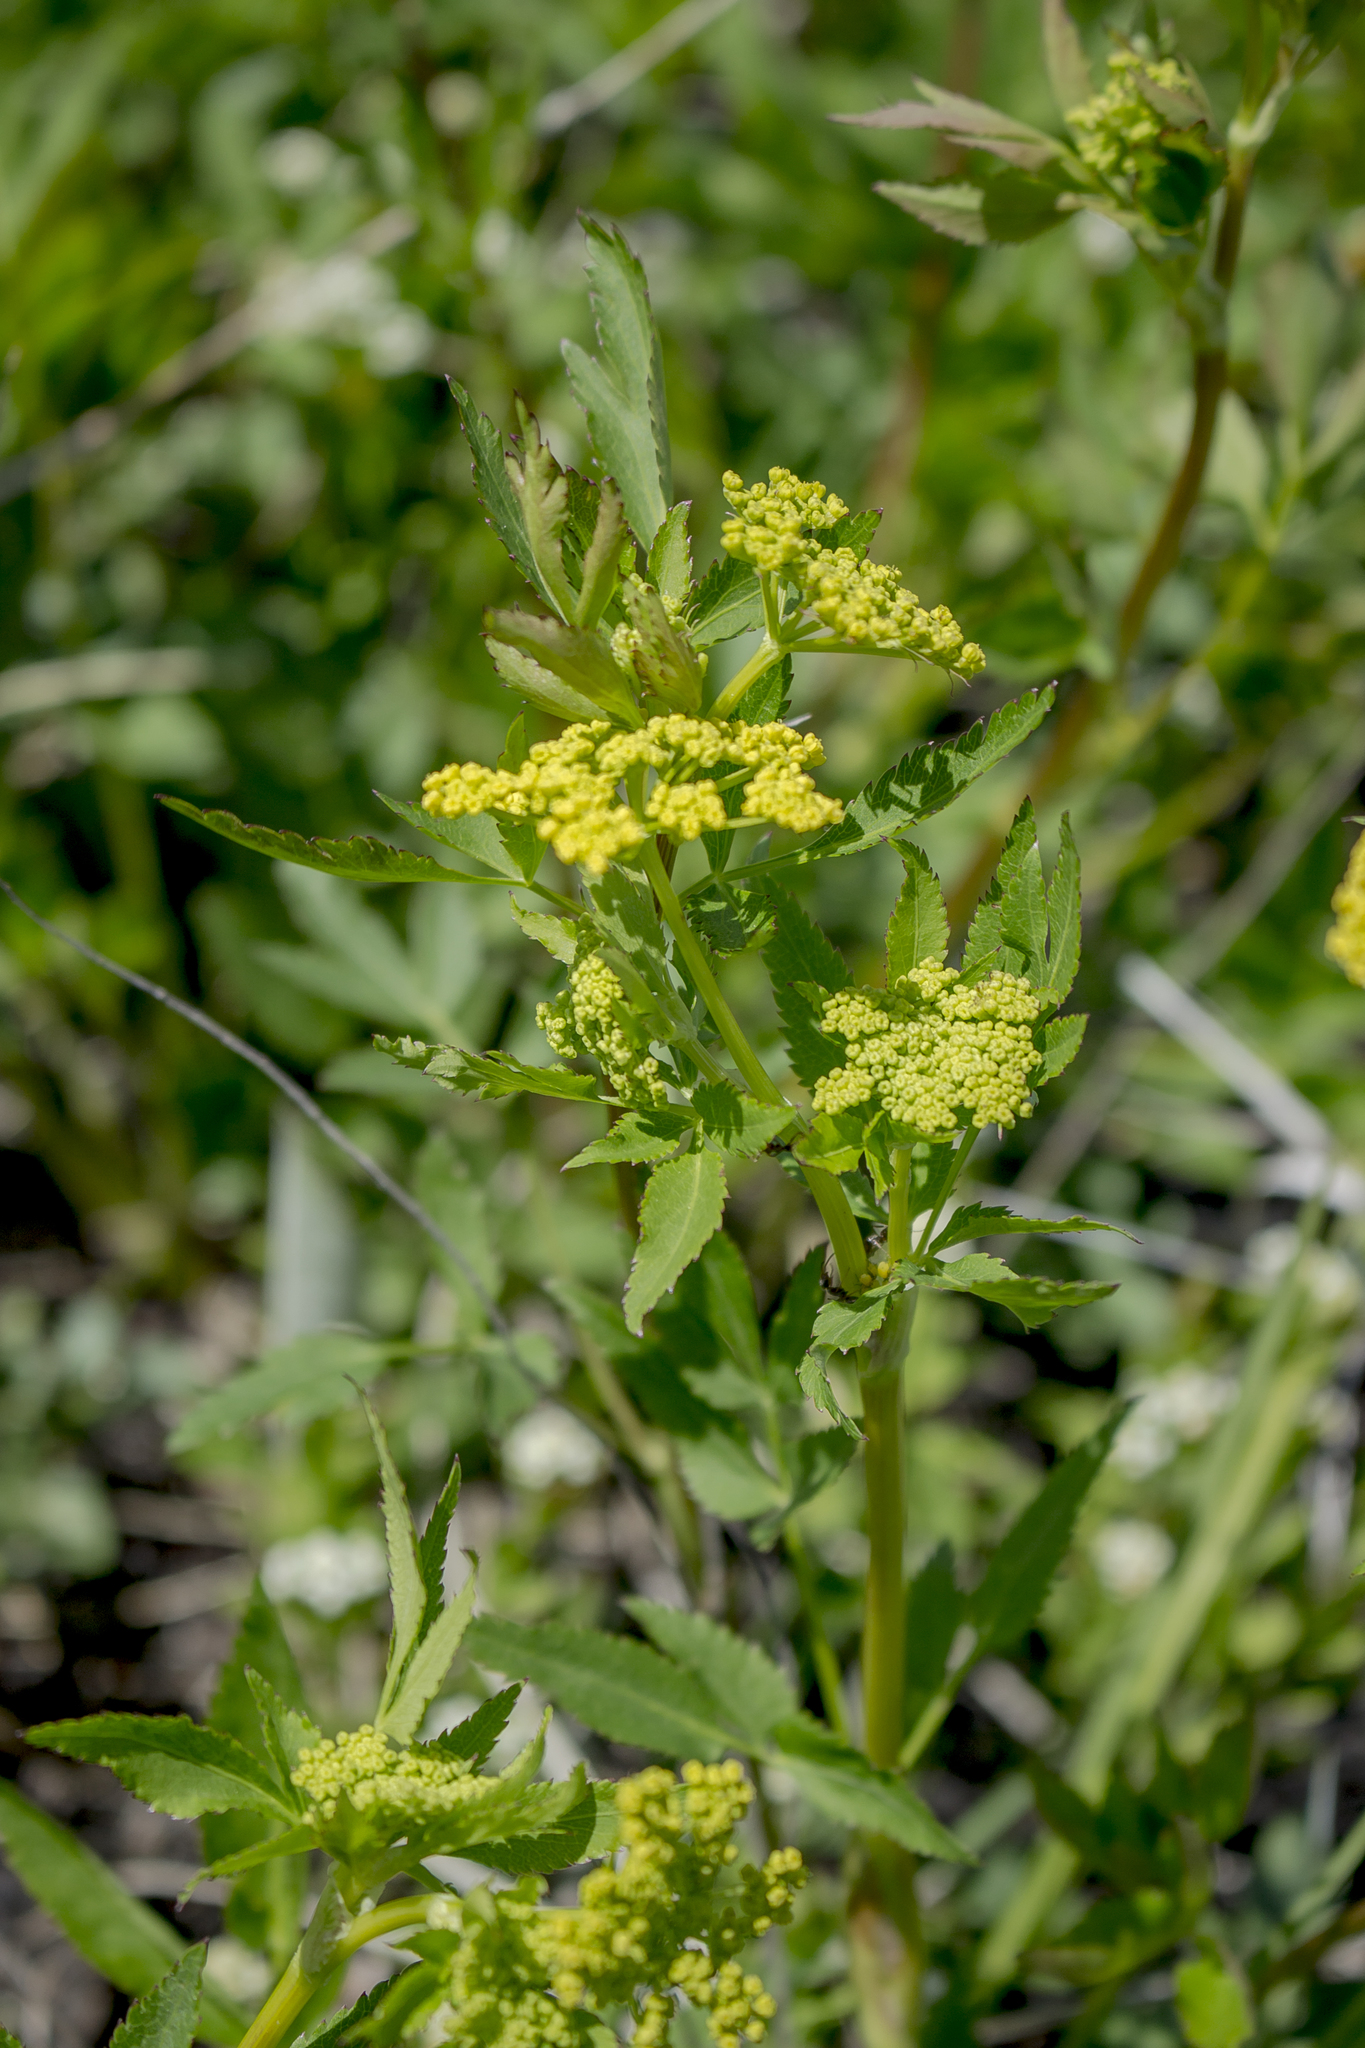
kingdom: Plantae
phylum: Tracheophyta
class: Magnoliopsida
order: Apiales
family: Apiaceae
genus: Zizia
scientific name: Zizia aurea
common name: Golden alexanders
